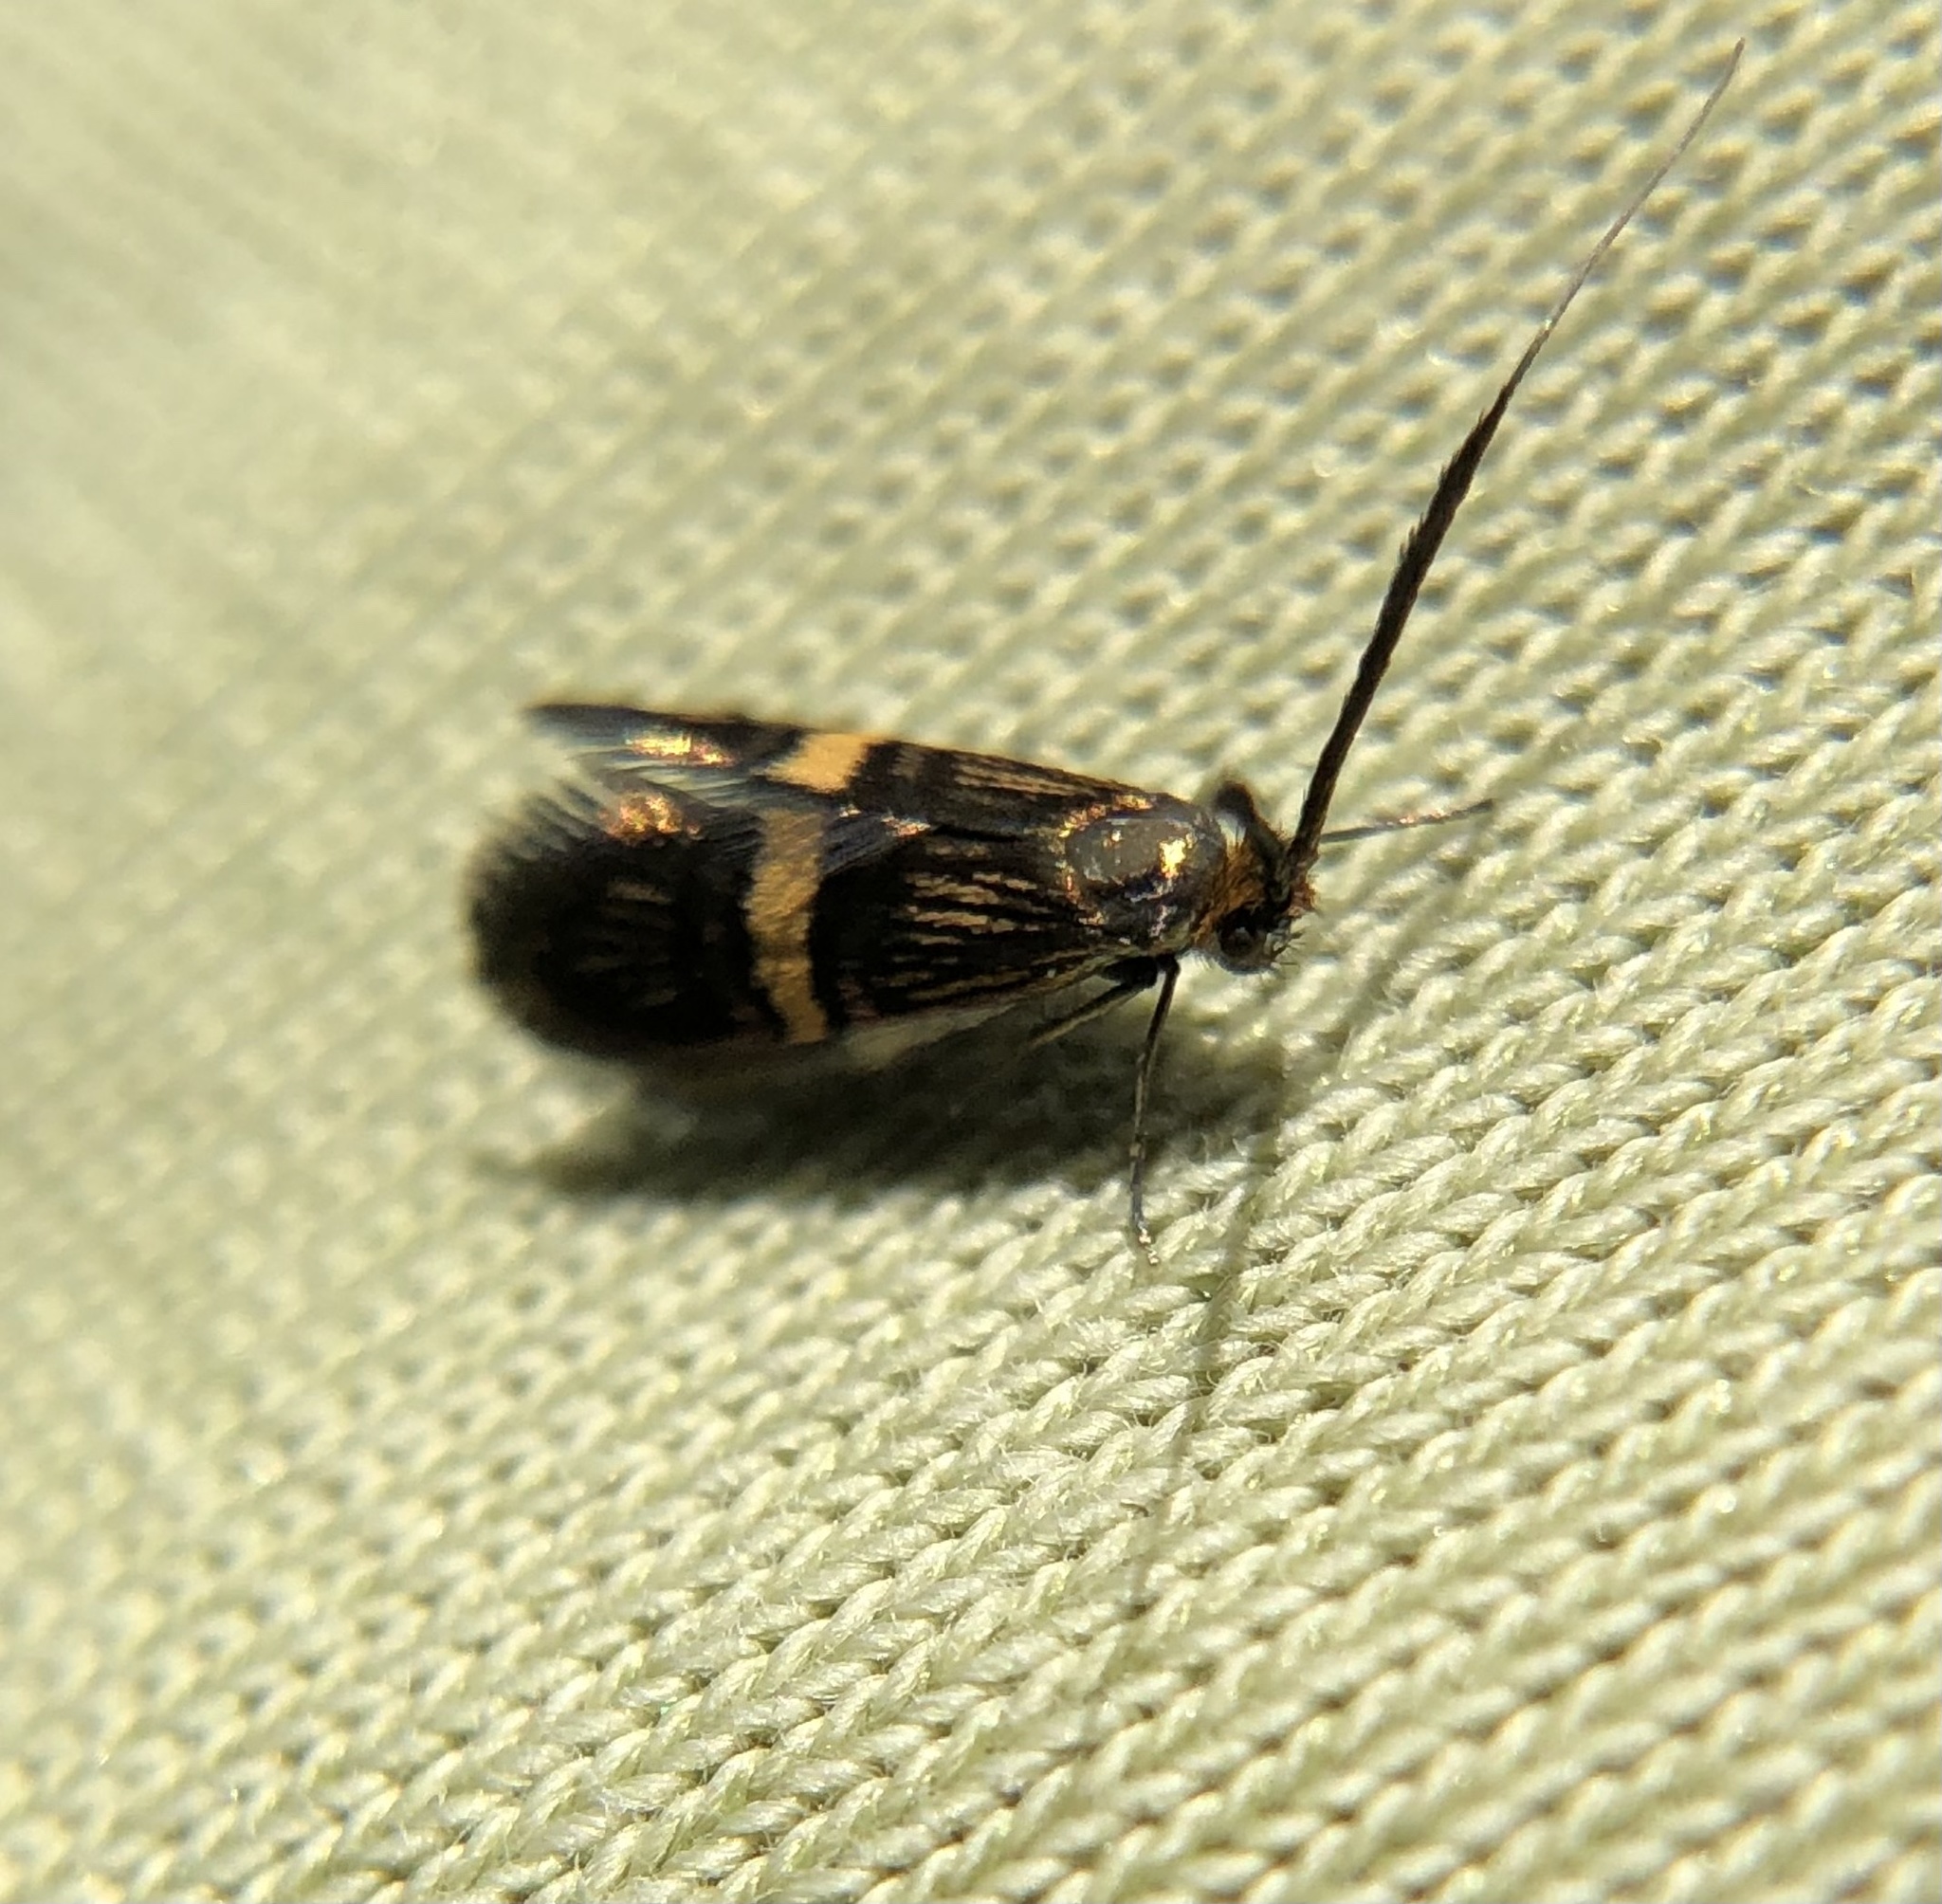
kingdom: Animalia
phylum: Arthropoda
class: Insecta
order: Lepidoptera
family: Adelidae
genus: Adela
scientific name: Adela croesella
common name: Small barred long-horn
